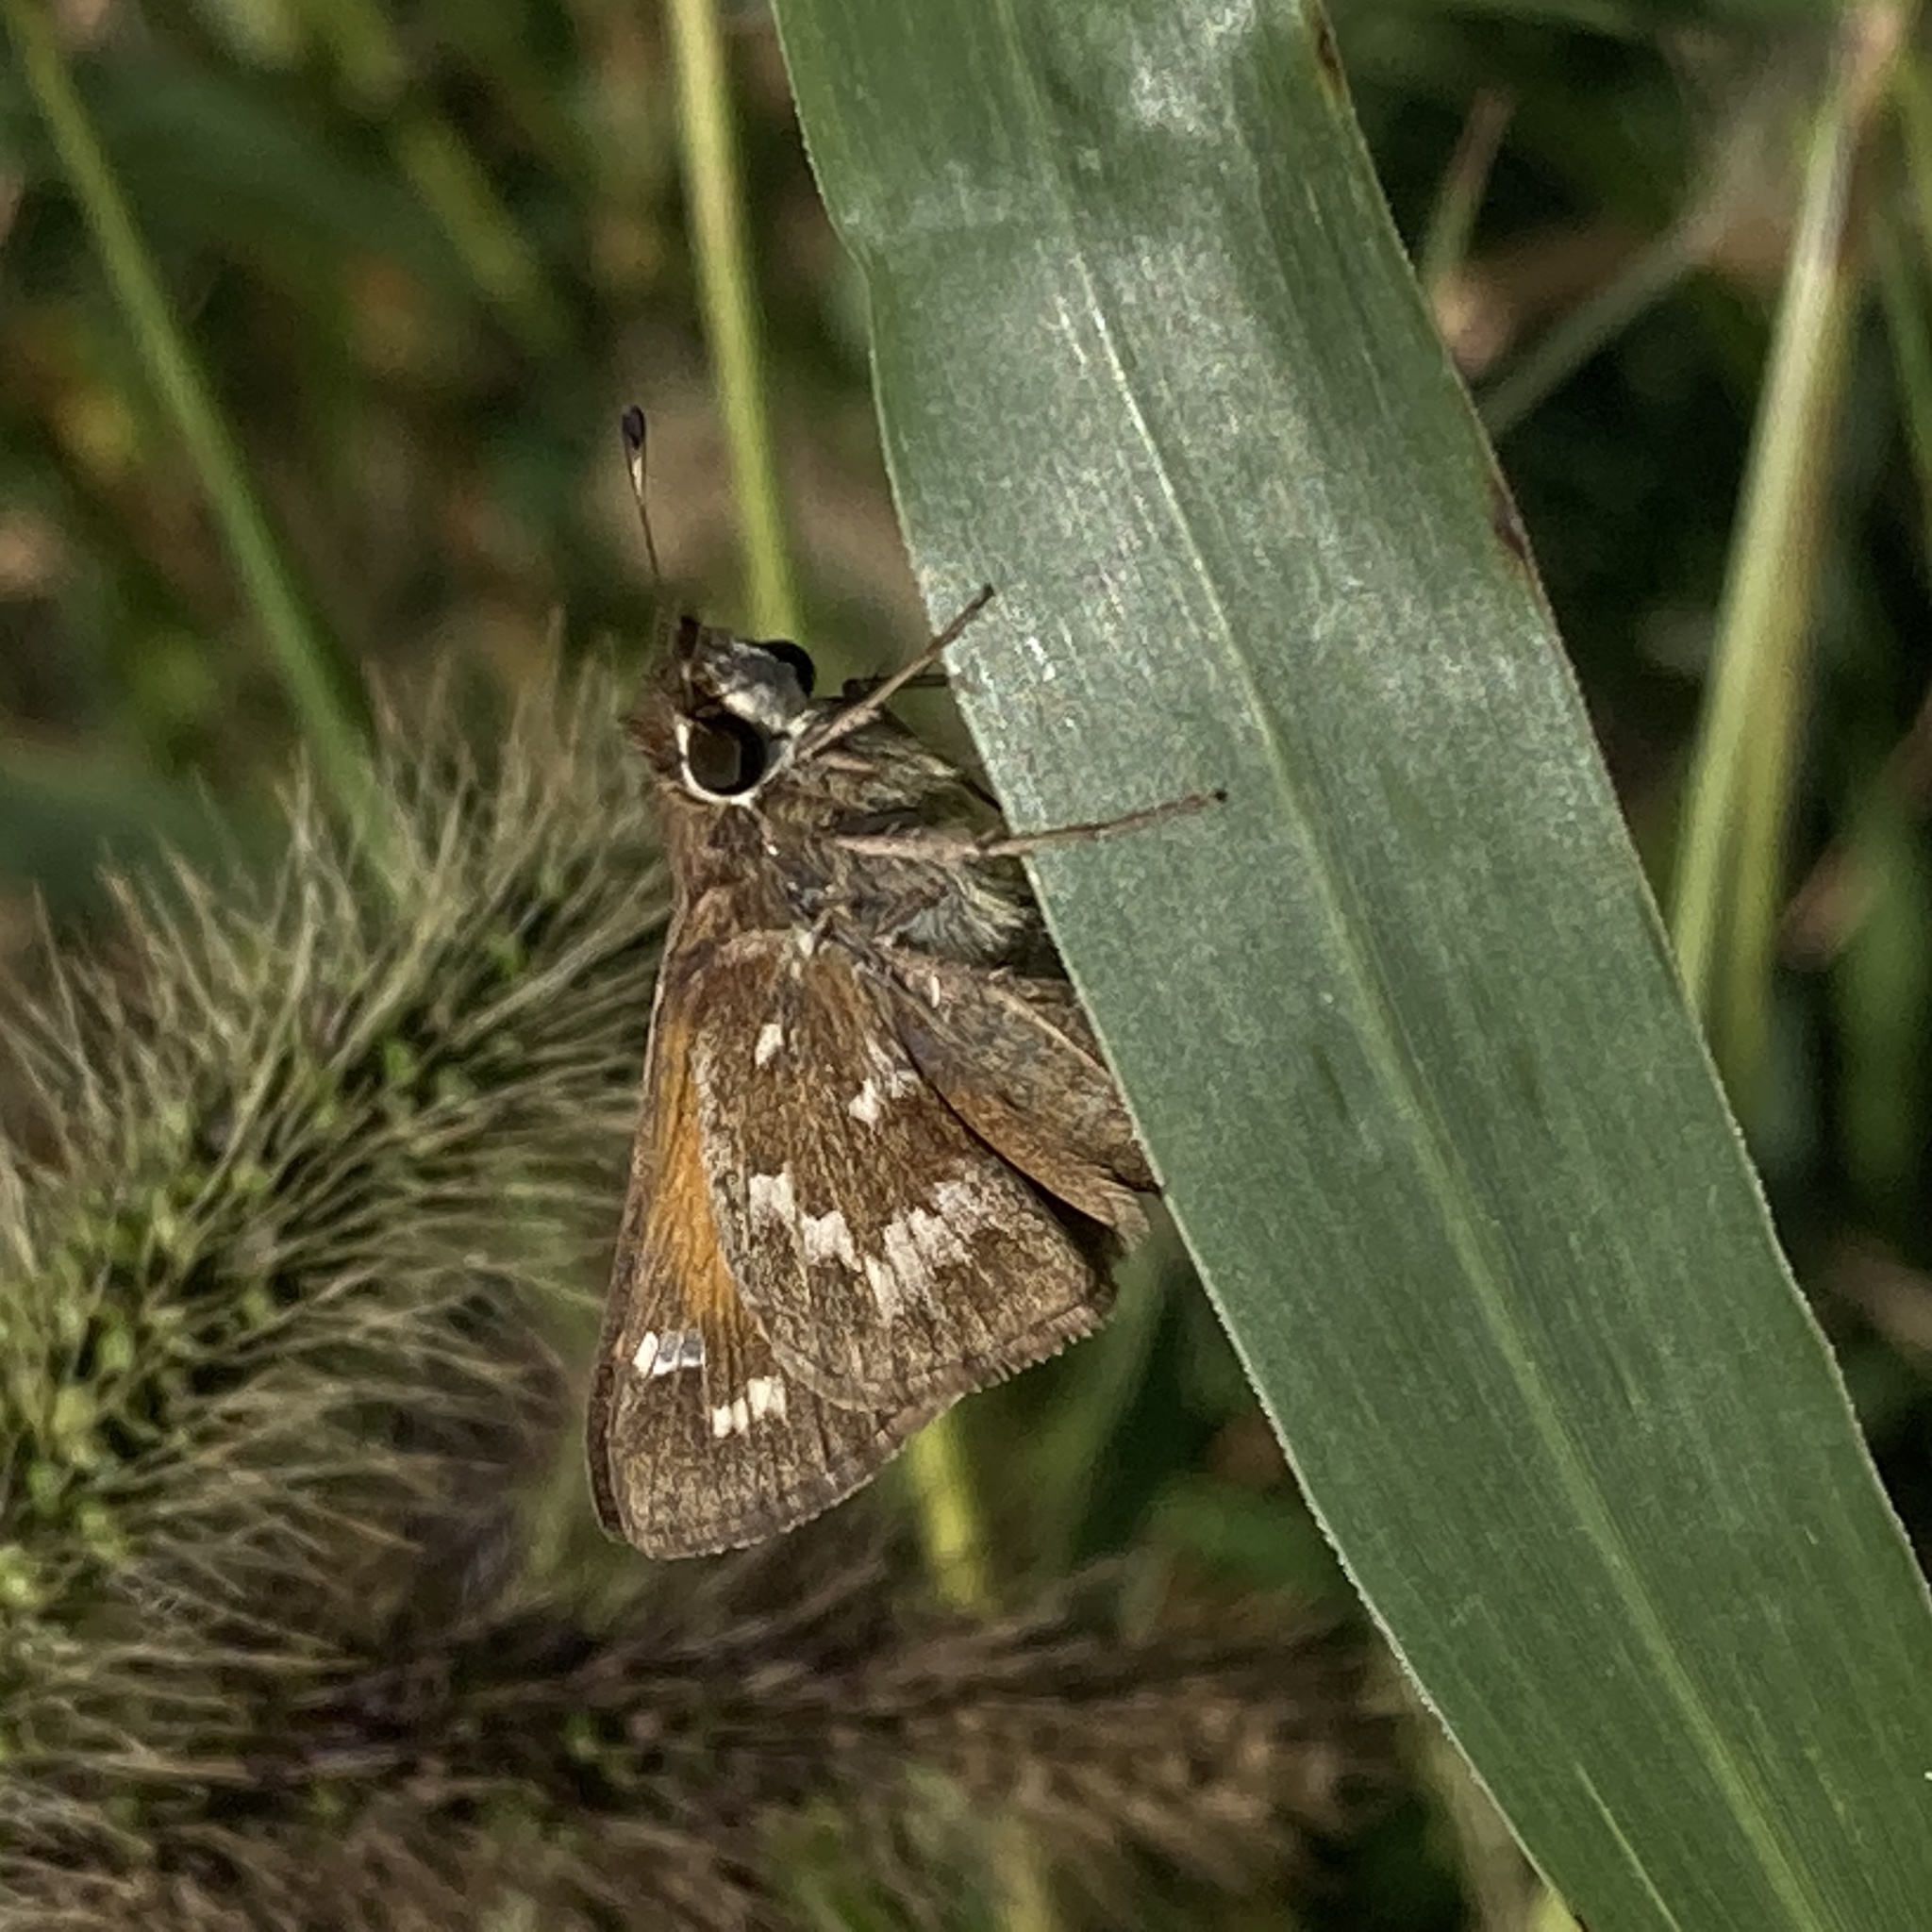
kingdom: Animalia
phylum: Arthropoda
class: Insecta
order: Lepidoptera
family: Hesperiidae
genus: Atalopedes
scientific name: Atalopedes
